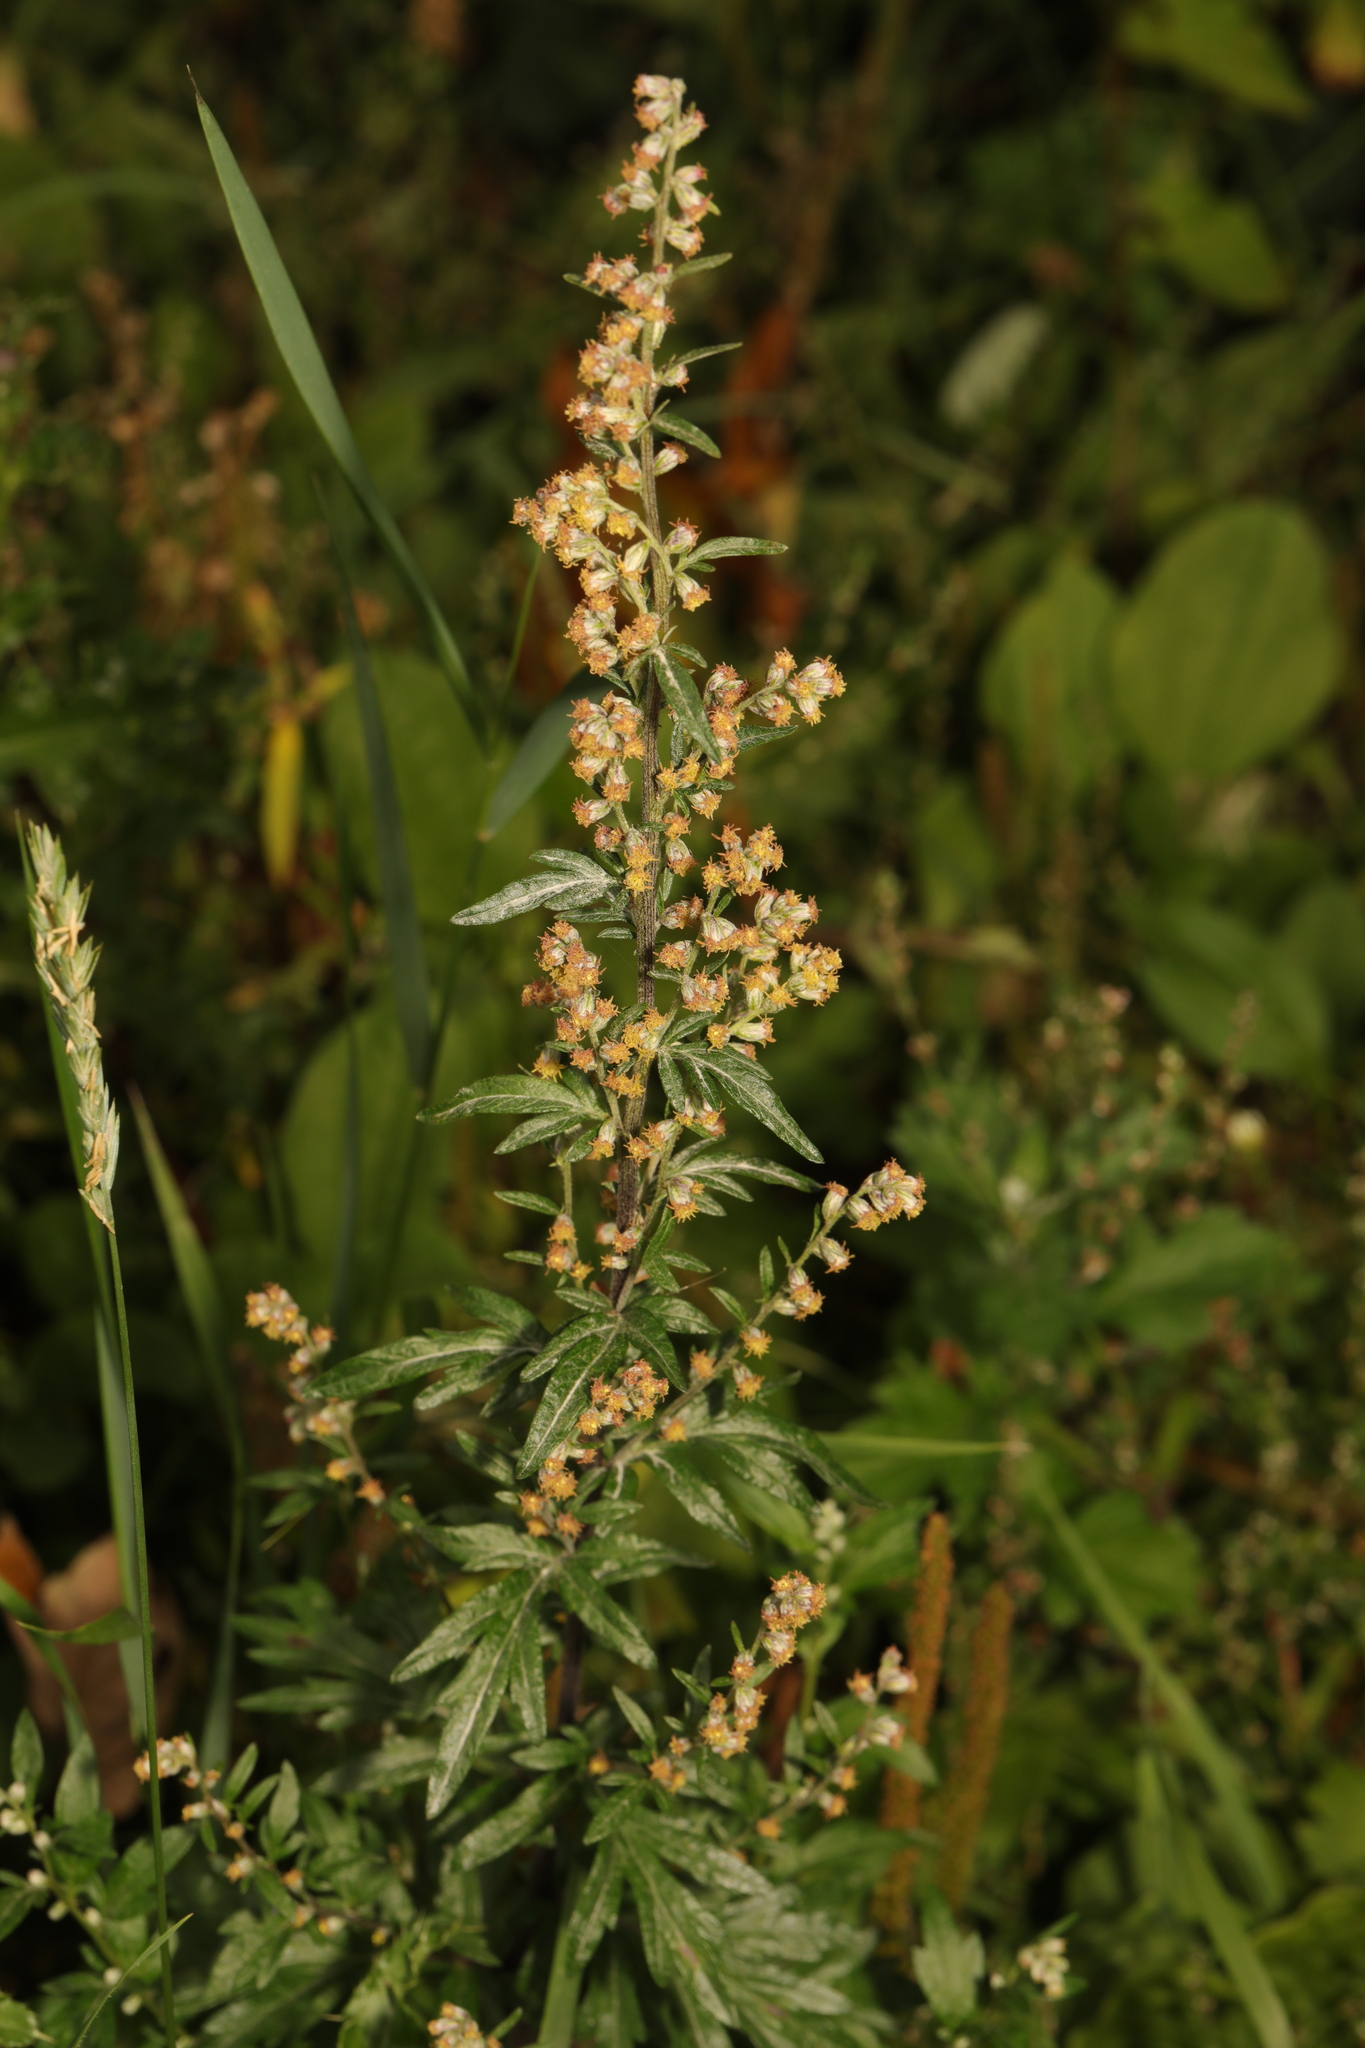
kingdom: Plantae
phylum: Tracheophyta
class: Magnoliopsida
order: Asterales
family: Asteraceae
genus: Artemisia
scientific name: Artemisia vulgaris
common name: Mugwort
